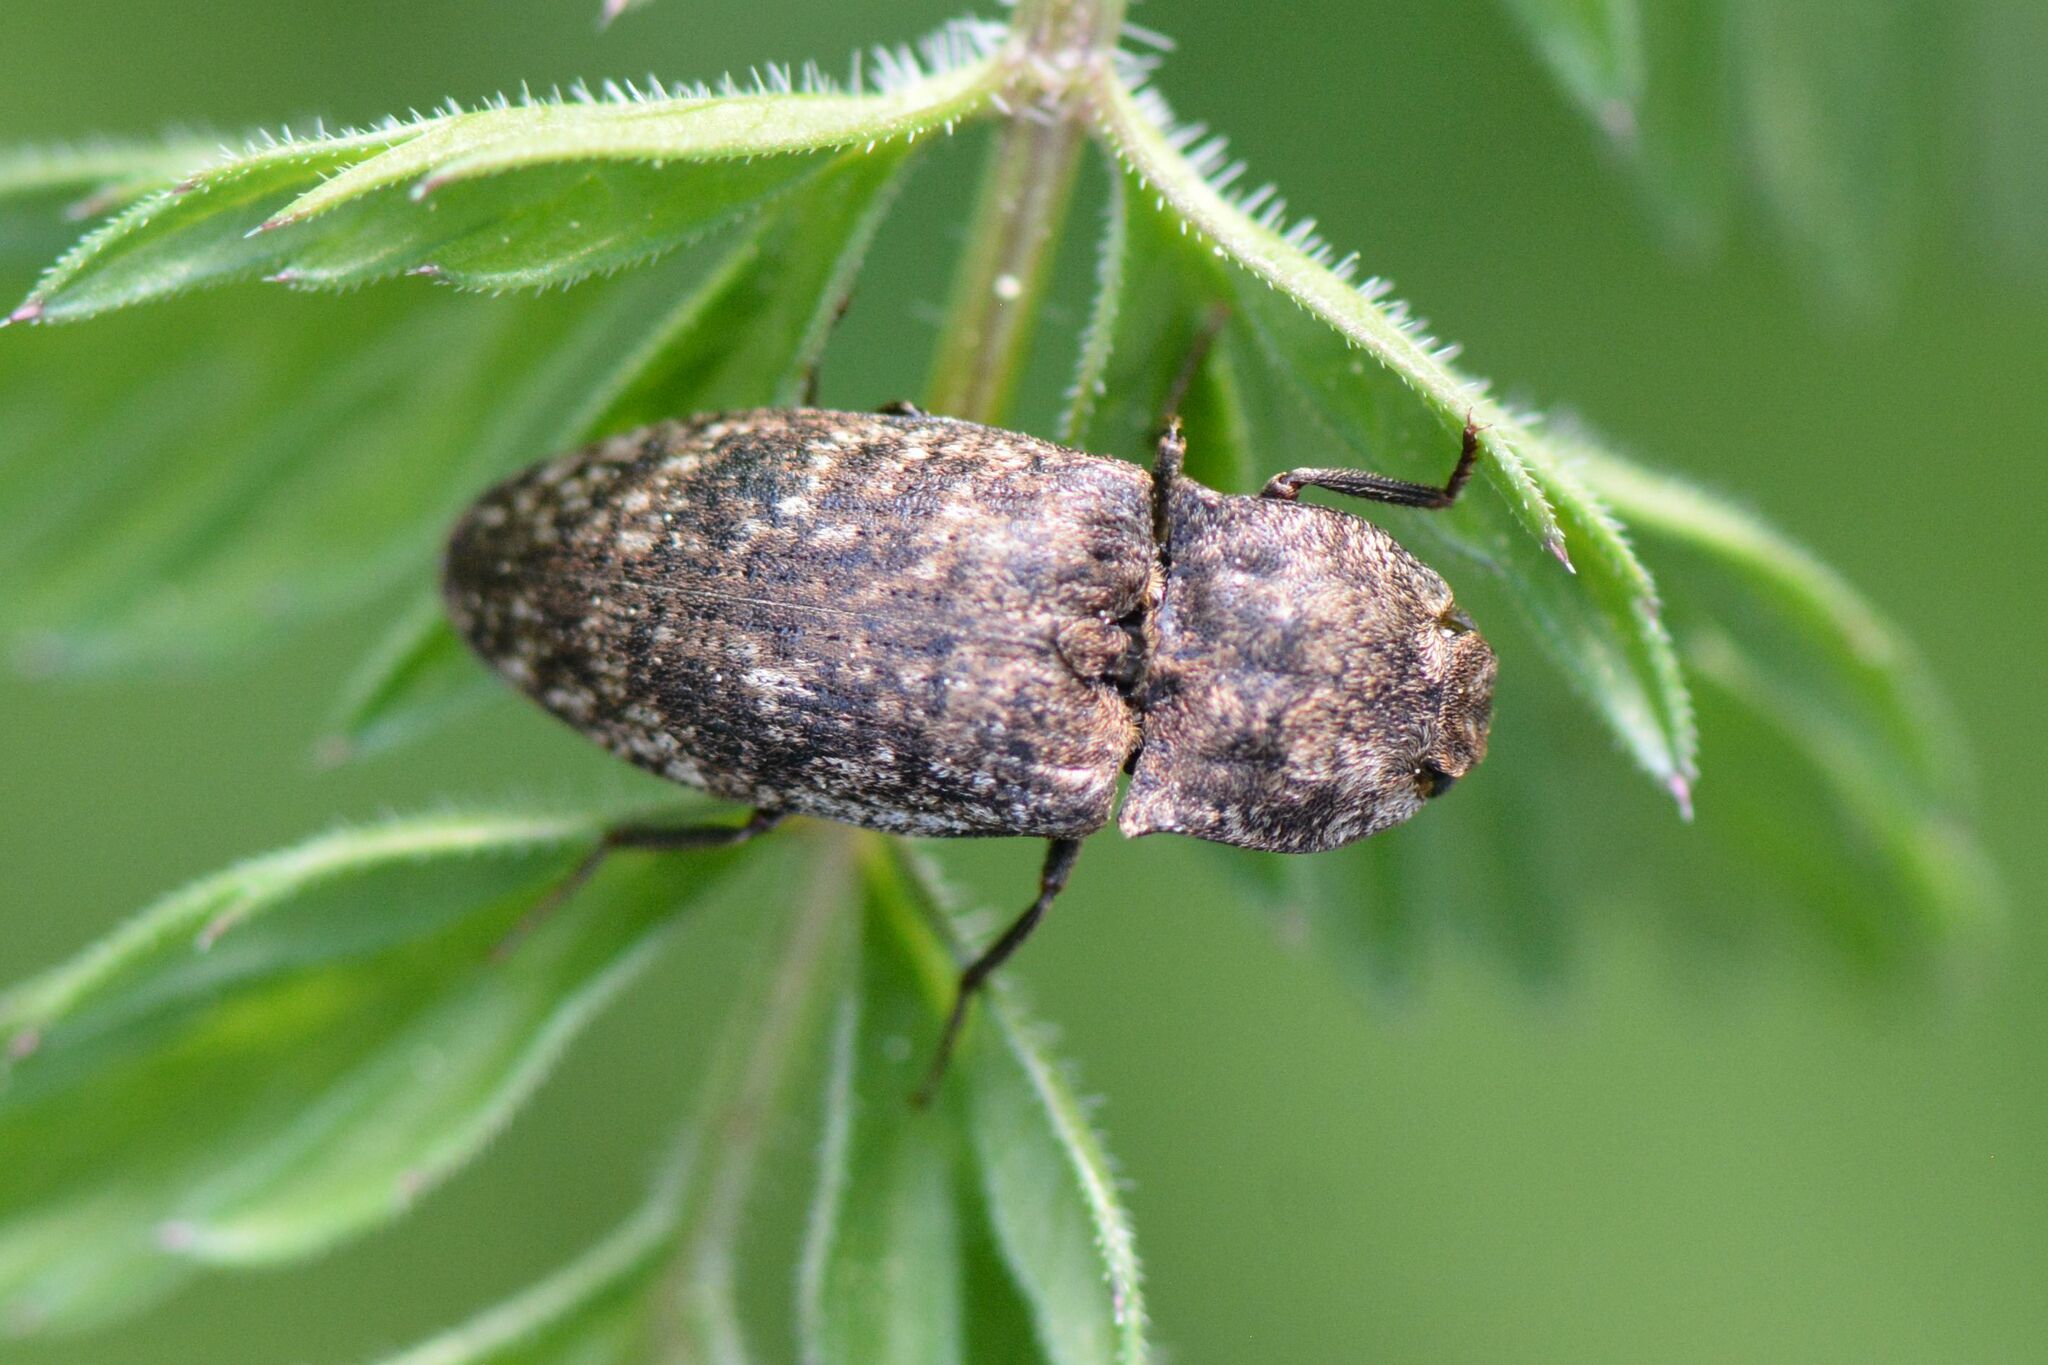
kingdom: Animalia
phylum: Arthropoda
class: Insecta
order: Coleoptera
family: Elateridae
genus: Agrypnus
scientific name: Agrypnus murinus
